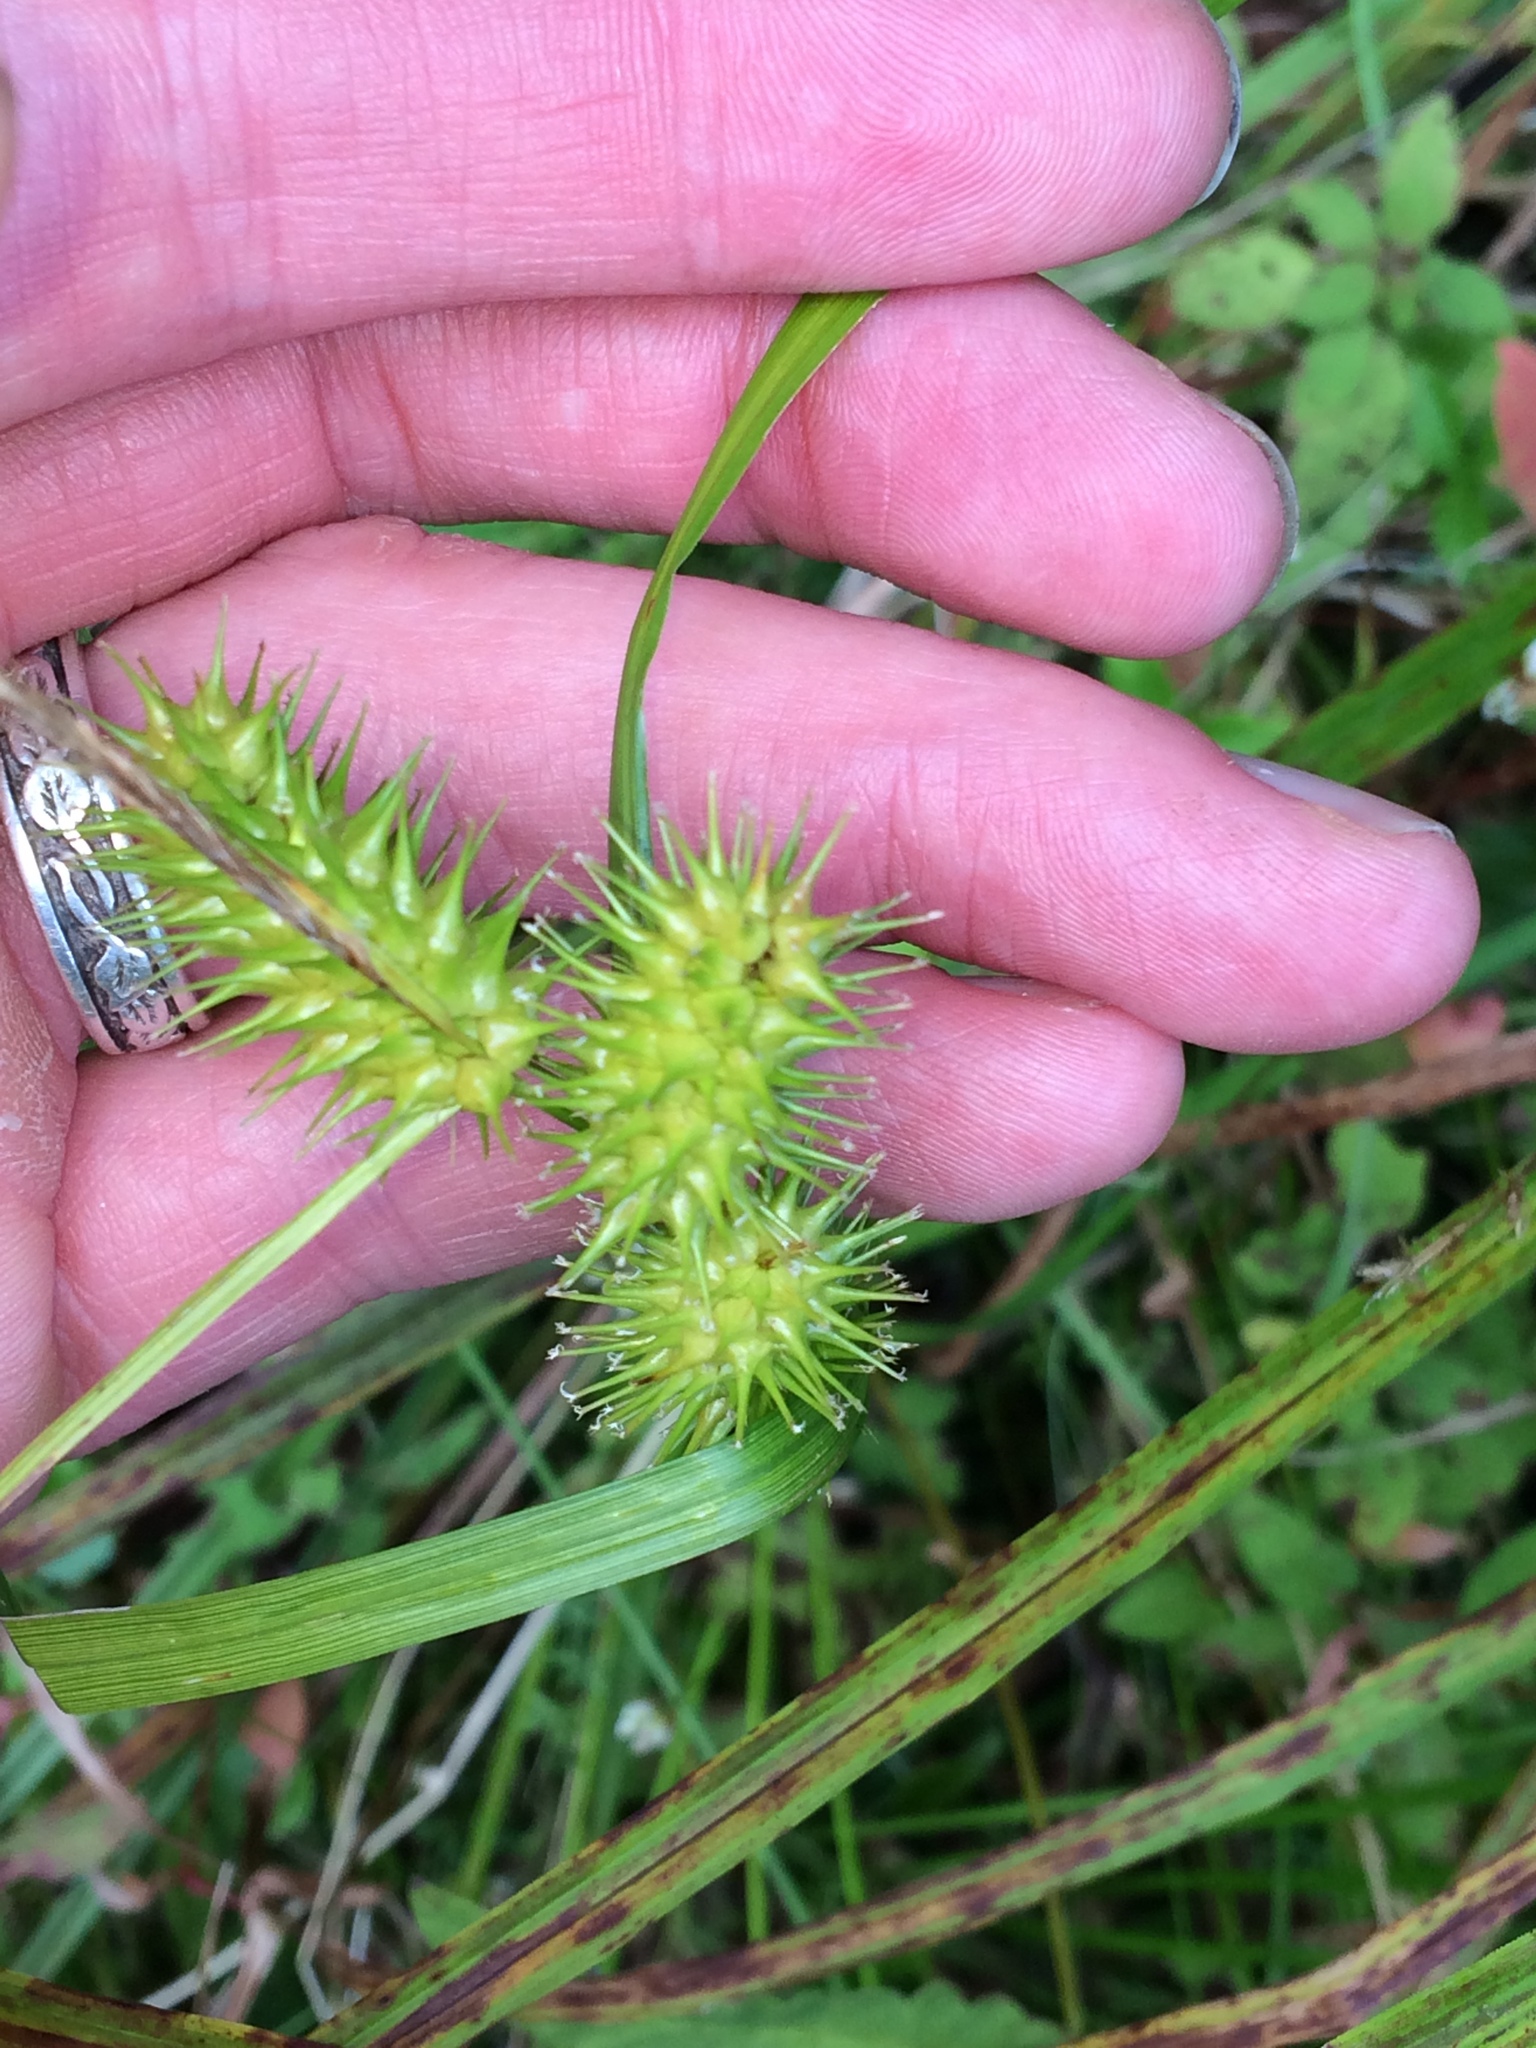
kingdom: Plantae
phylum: Tracheophyta
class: Liliopsida
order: Poales
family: Cyperaceae
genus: Carex
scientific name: Carex lurida
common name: Sallow sedge
